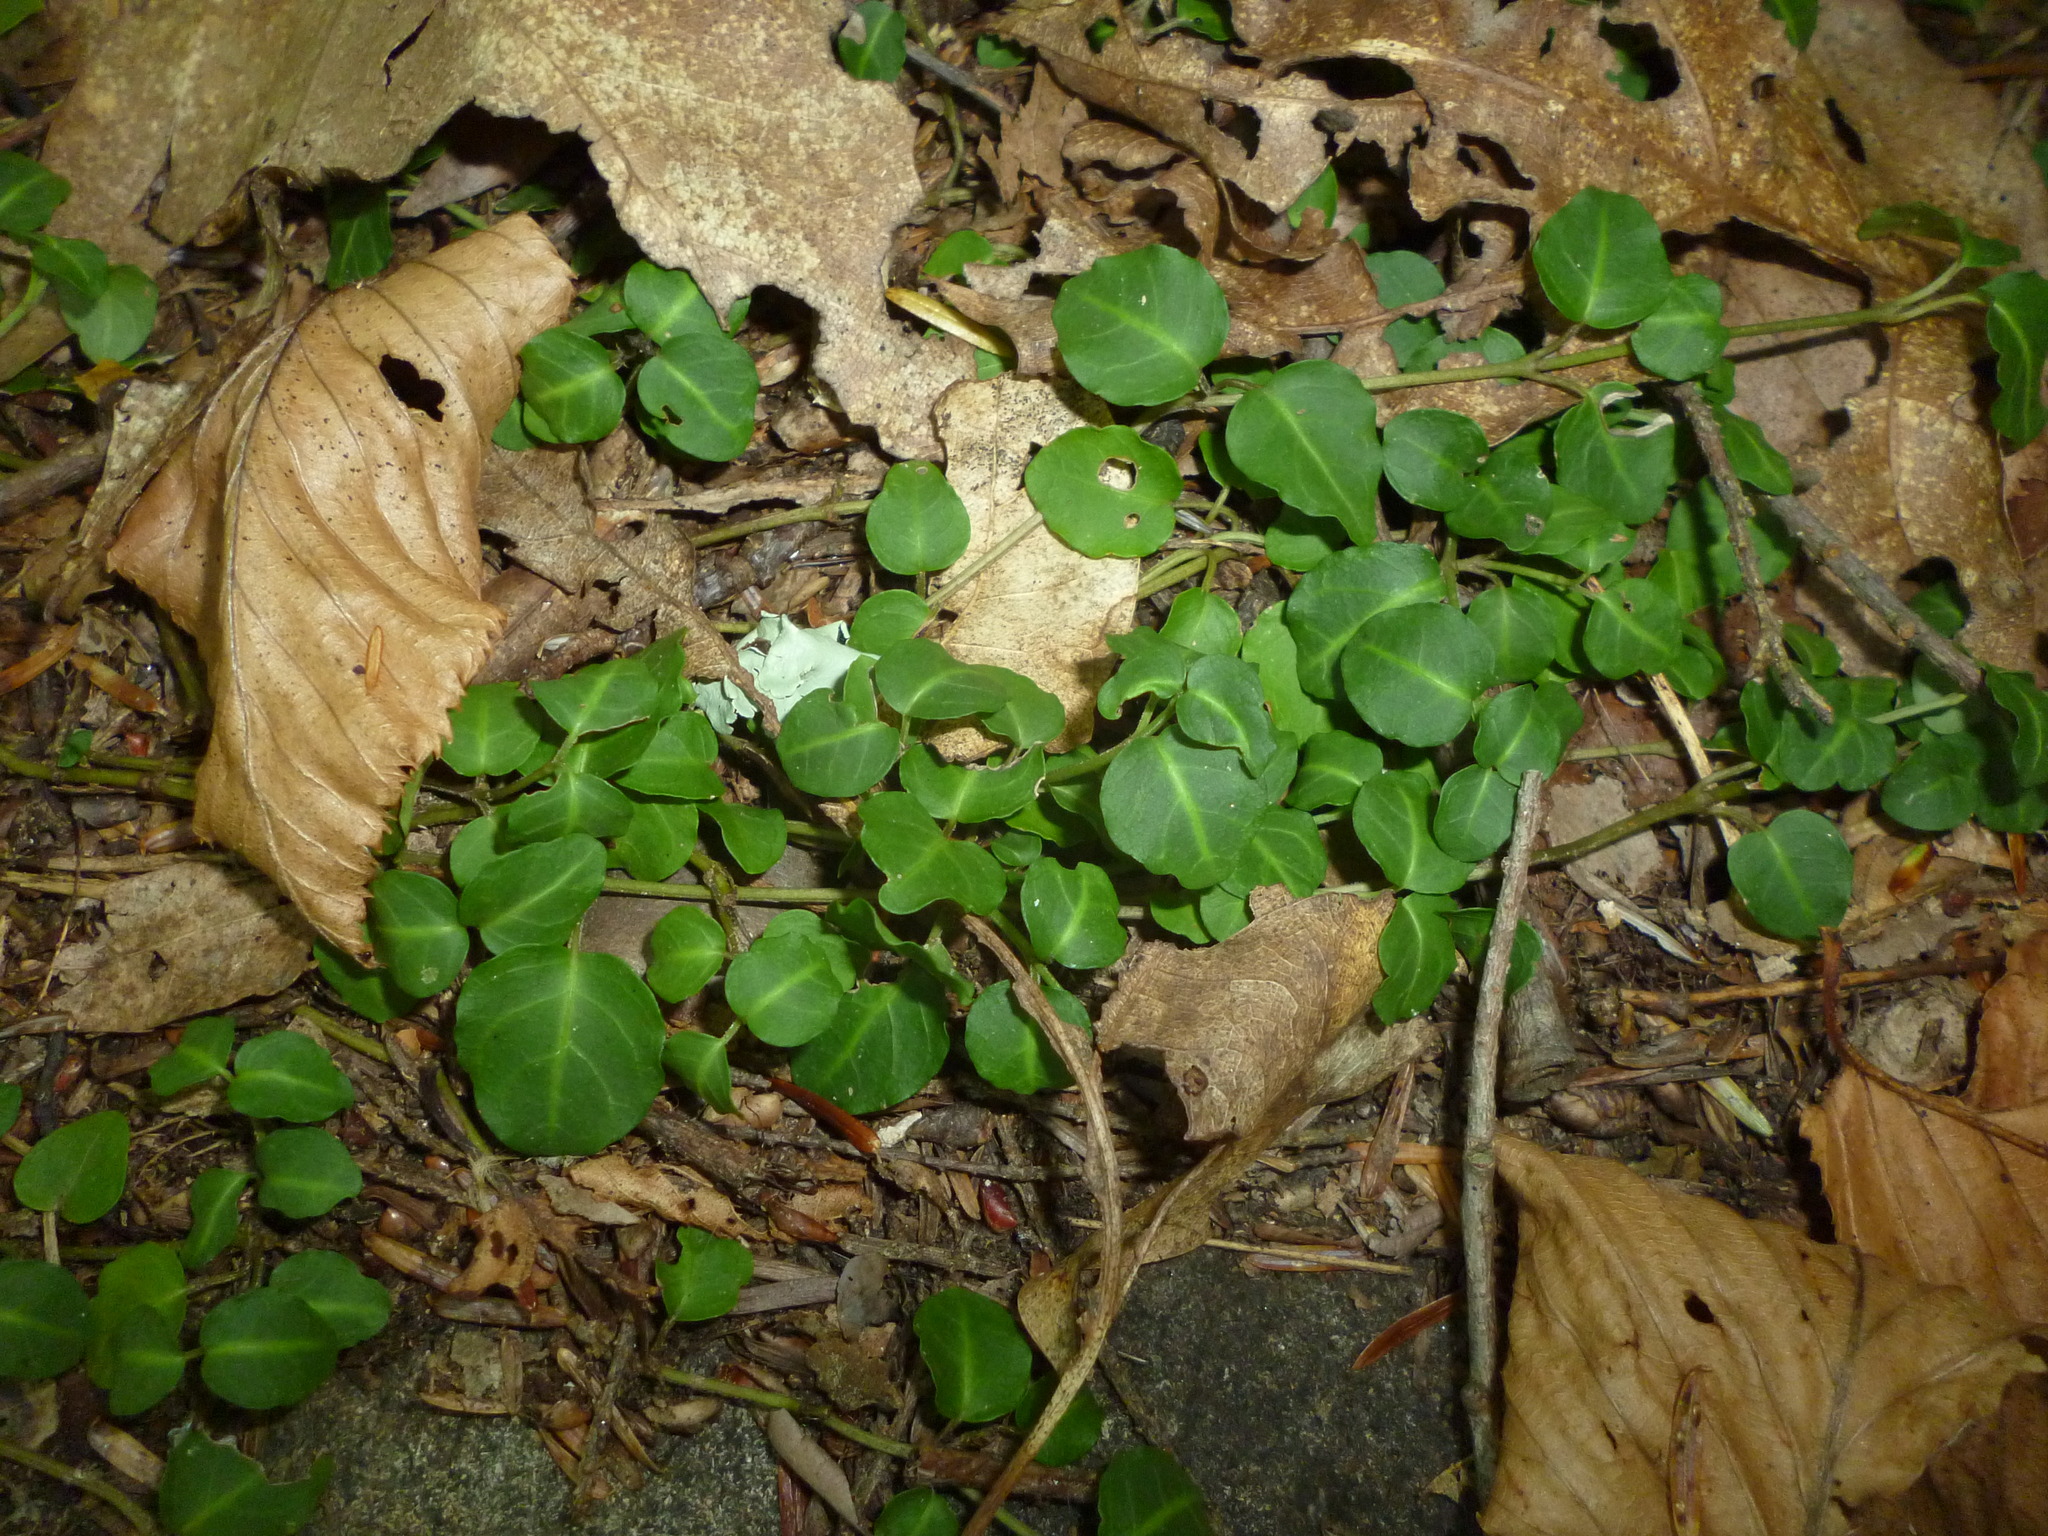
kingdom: Plantae
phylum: Tracheophyta
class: Magnoliopsida
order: Gentianales
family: Rubiaceae
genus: Mitchella
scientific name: Mitchella repens
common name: Partridge-berry
